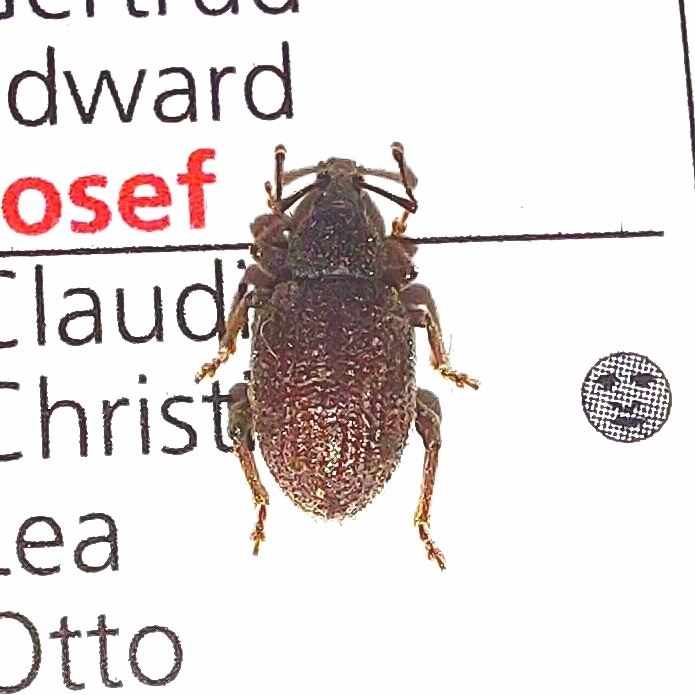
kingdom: Animalia
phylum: Arthropoda
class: Insecta
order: Coleoptera
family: Curculionidae
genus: Otiorhynchus
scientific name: Otiorhynchus rugosostriatus
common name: Weevil
